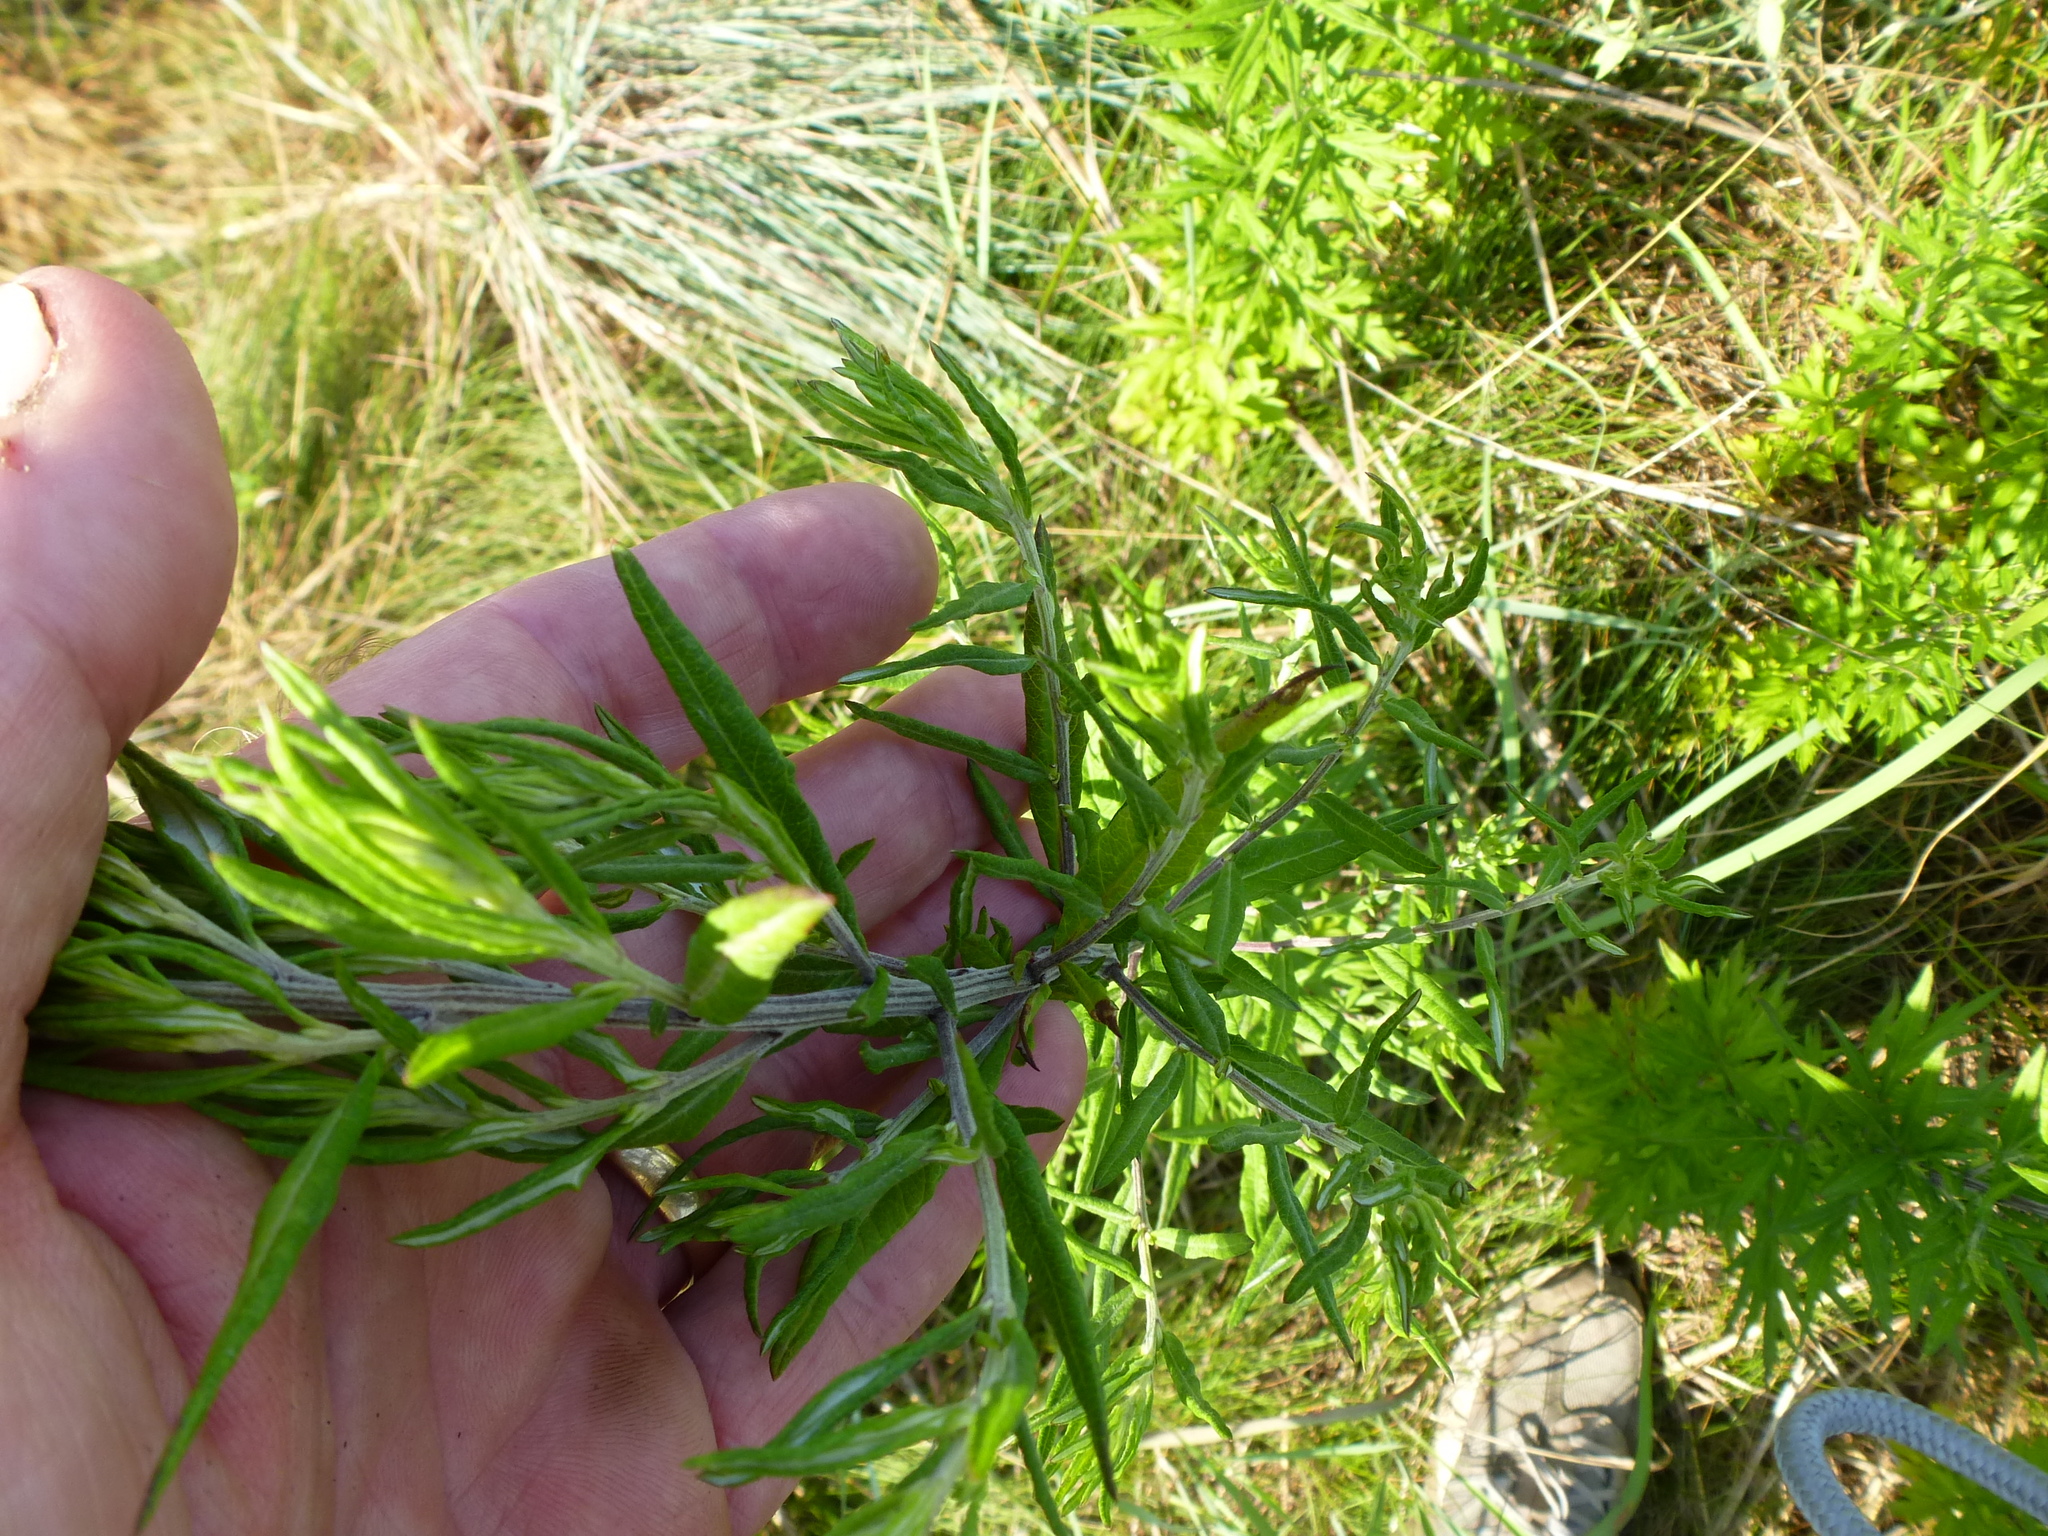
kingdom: Plantae
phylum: Tracheophyta
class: Magnoliopsida
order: Asterales
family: Asteraceae
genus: Artemisia
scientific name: Artemisia vulgaris
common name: Mugwort
